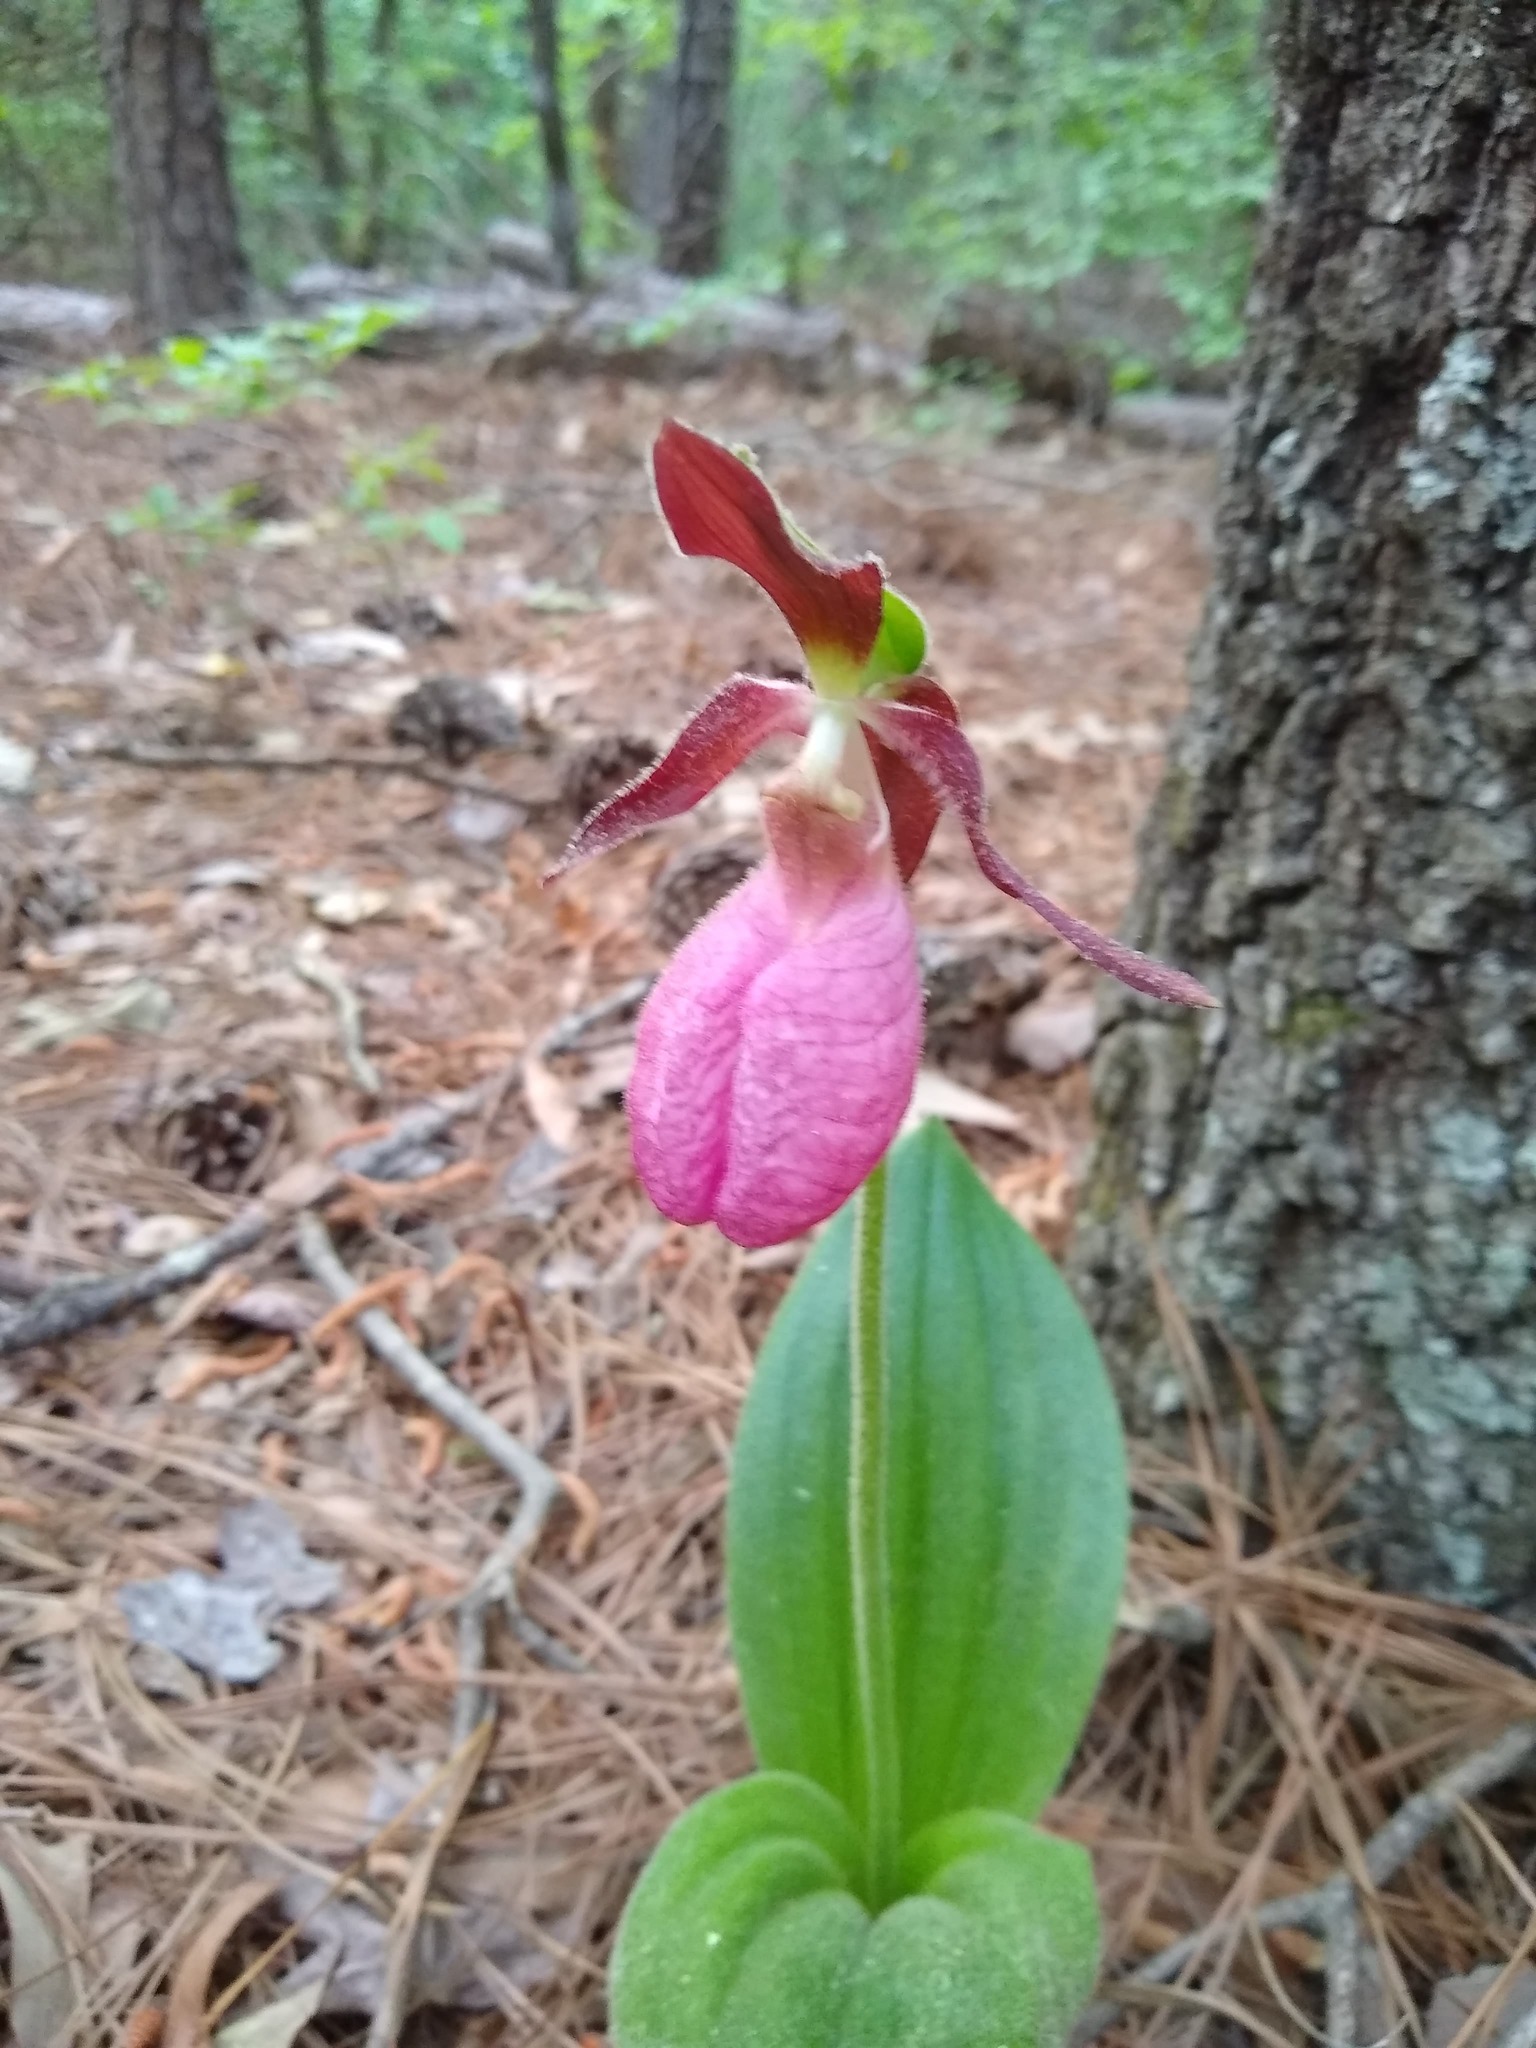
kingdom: Plantae
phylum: Tracheophyta
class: Liliopsida
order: Asparagales
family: Orchidaceae
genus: Cypripedium
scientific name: Cypripedium acaule
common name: Pink lady's-slipper
